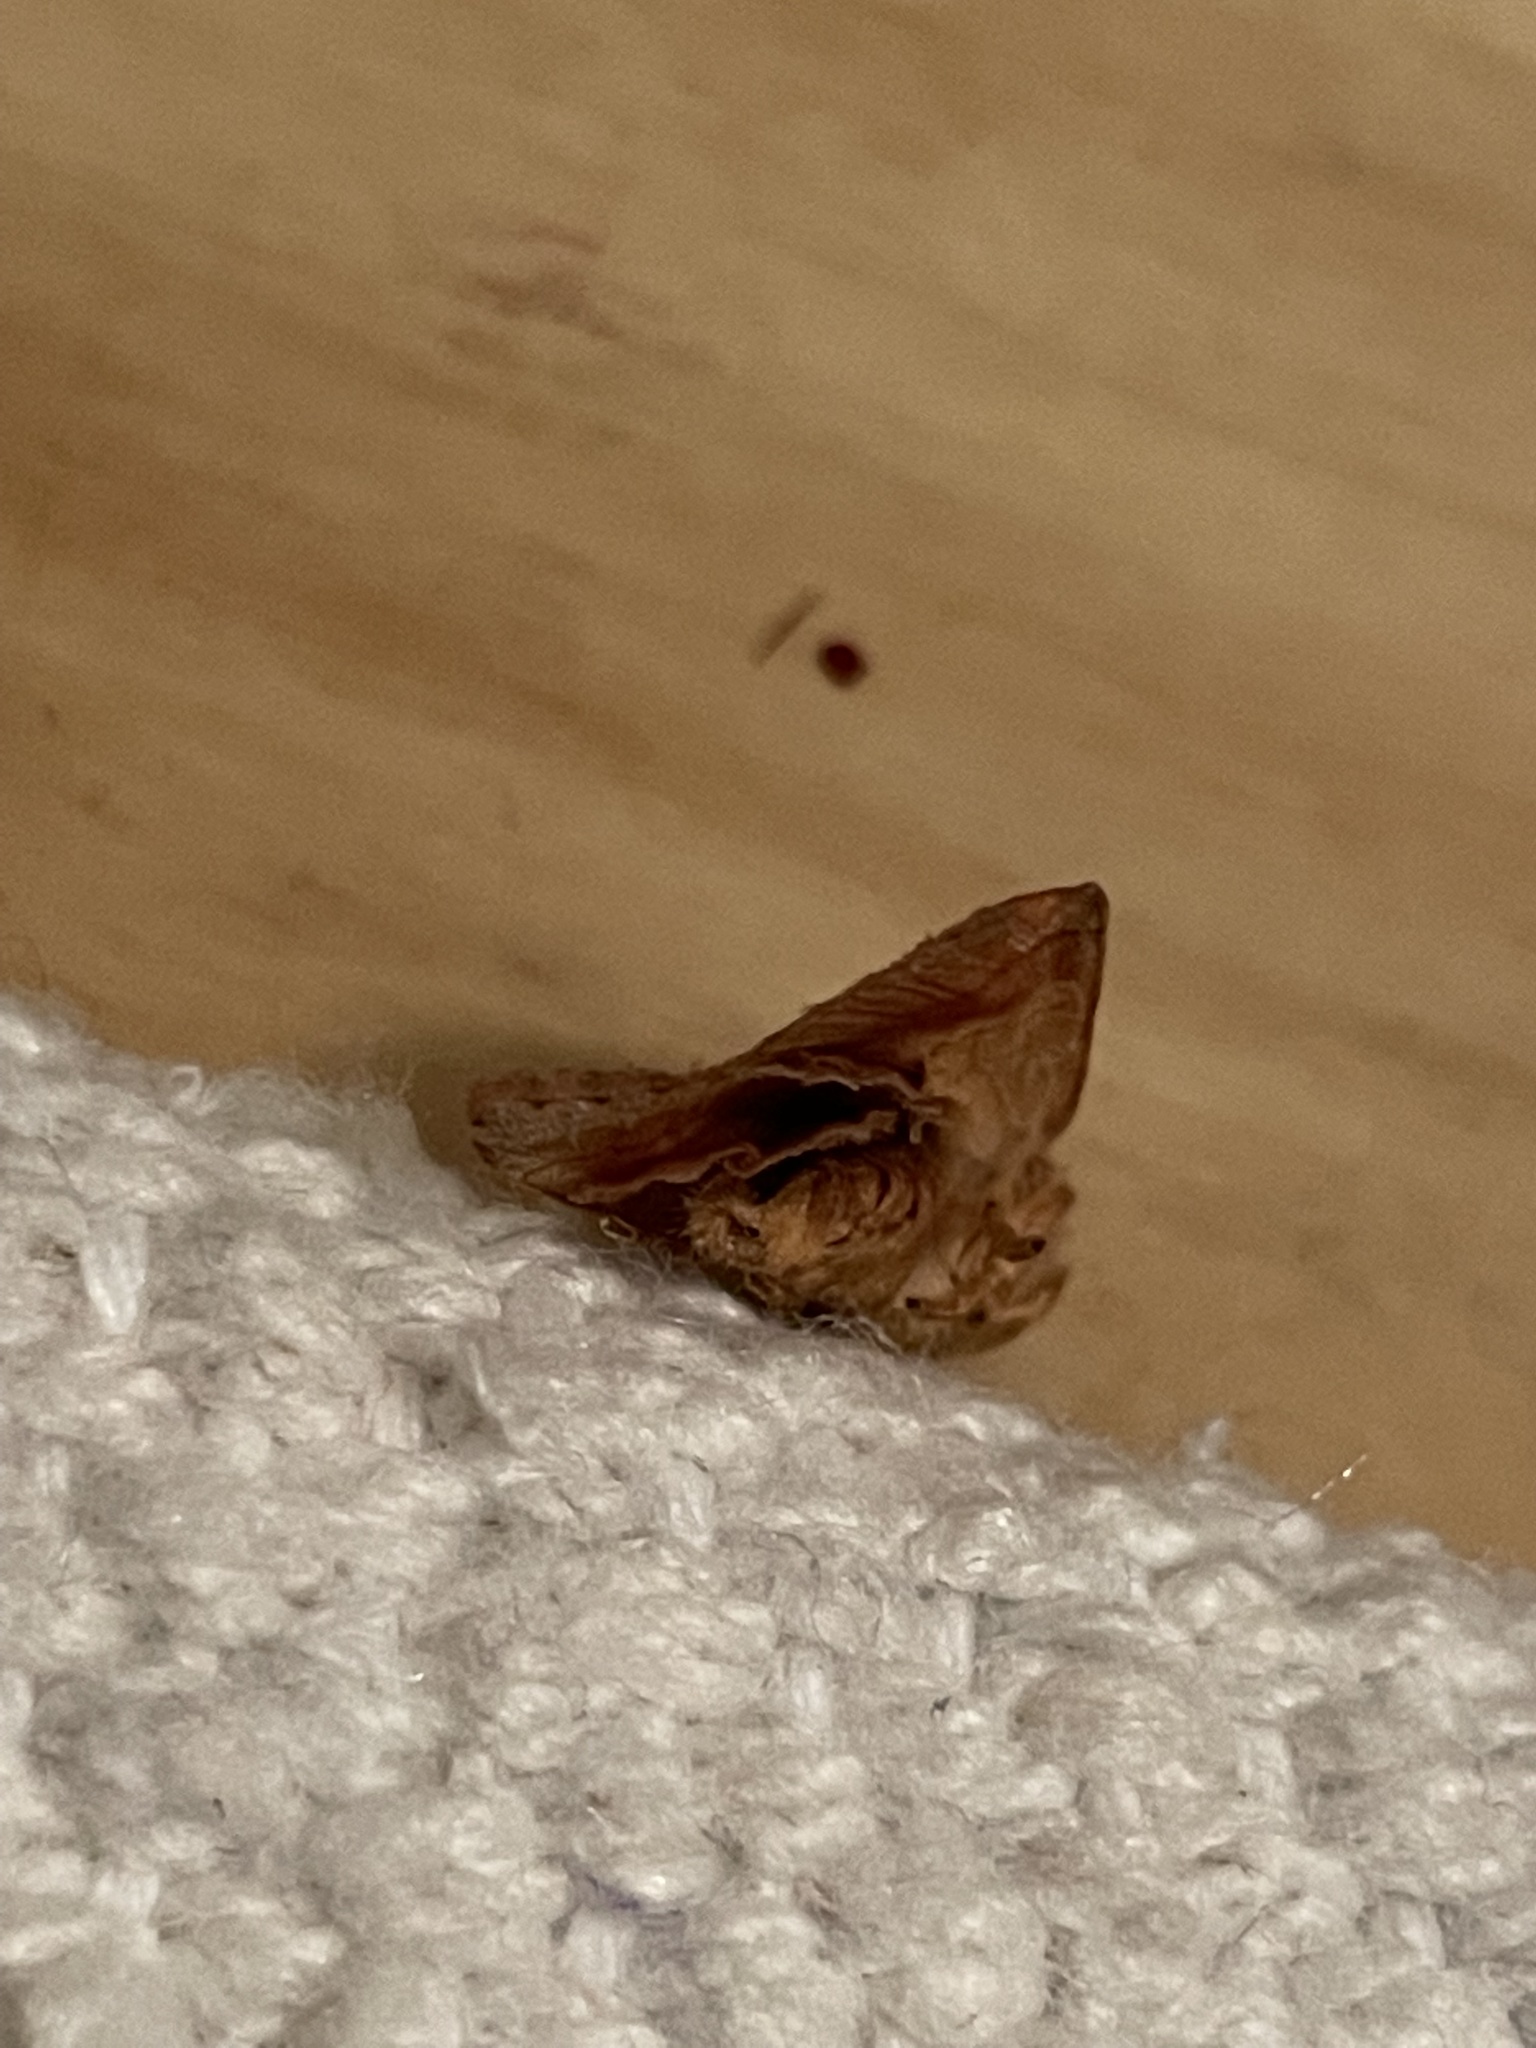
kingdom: Animalia
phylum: Arthropoda
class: Insecta
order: Lepidoptera
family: Noctuidae
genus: Agrochola
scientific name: Agrochola bicolorago
